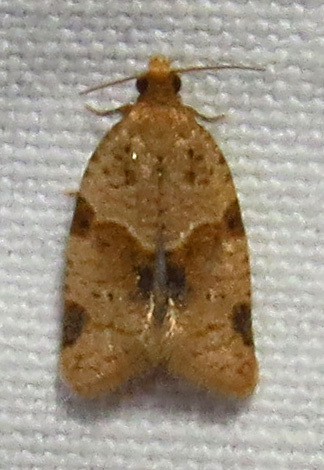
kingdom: Animalia
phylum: Arthropoda
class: Insecta
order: Lepidoptera
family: Tortricidae
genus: Clepsis
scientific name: Clepsis peritana
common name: Garden tortrix
